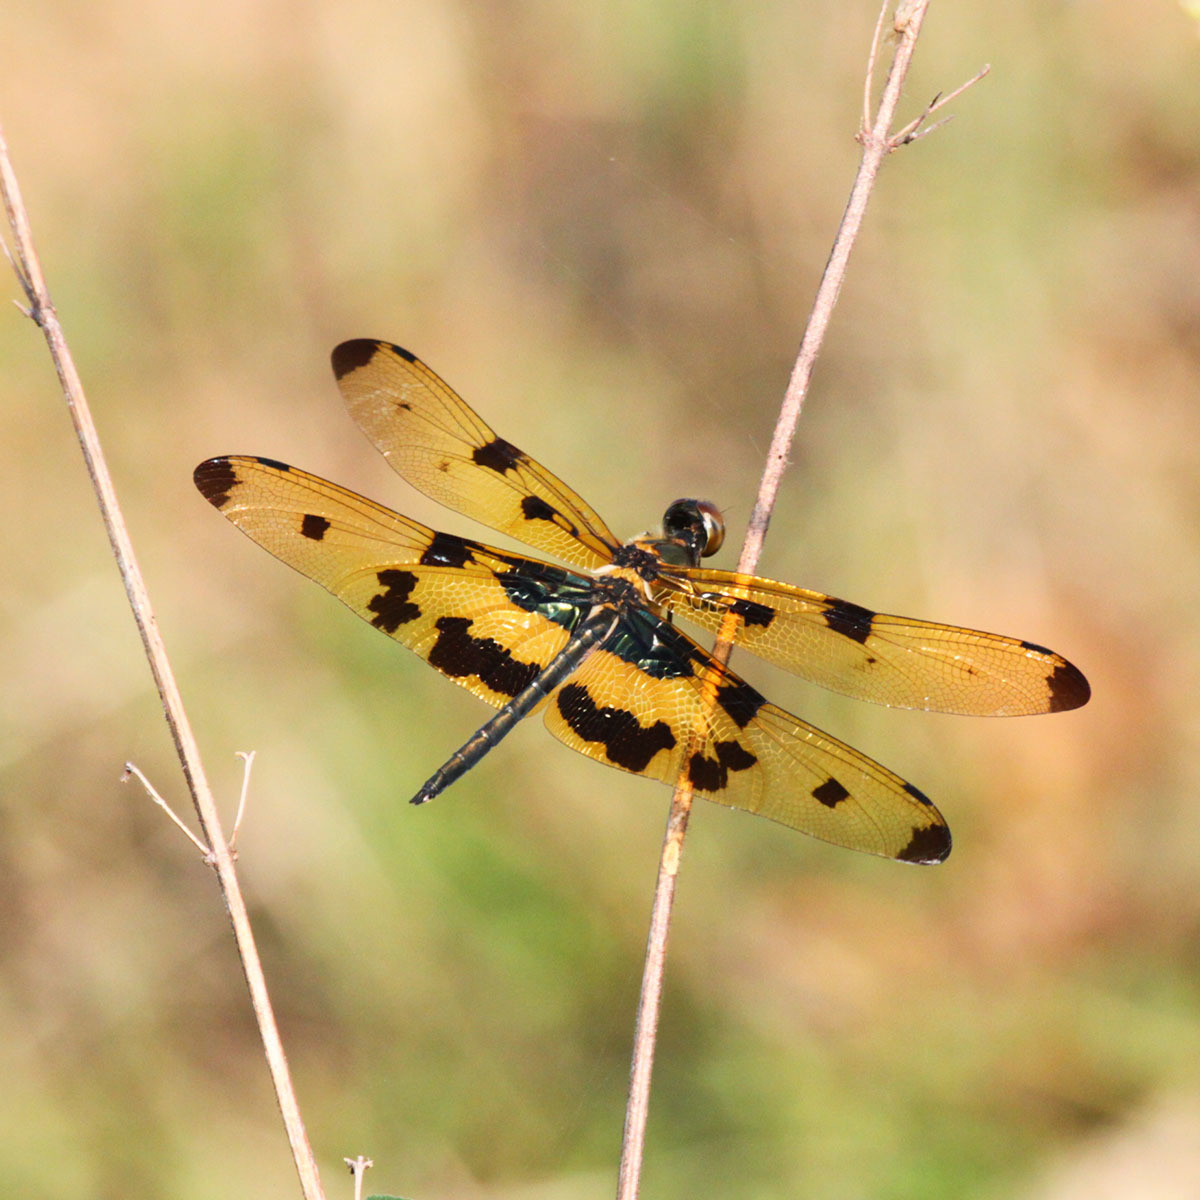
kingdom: Animalia
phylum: Arthropoda
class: Insecta
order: Odonata
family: Libellulidae
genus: Rhyothemis
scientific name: Rhyothemis variegata
